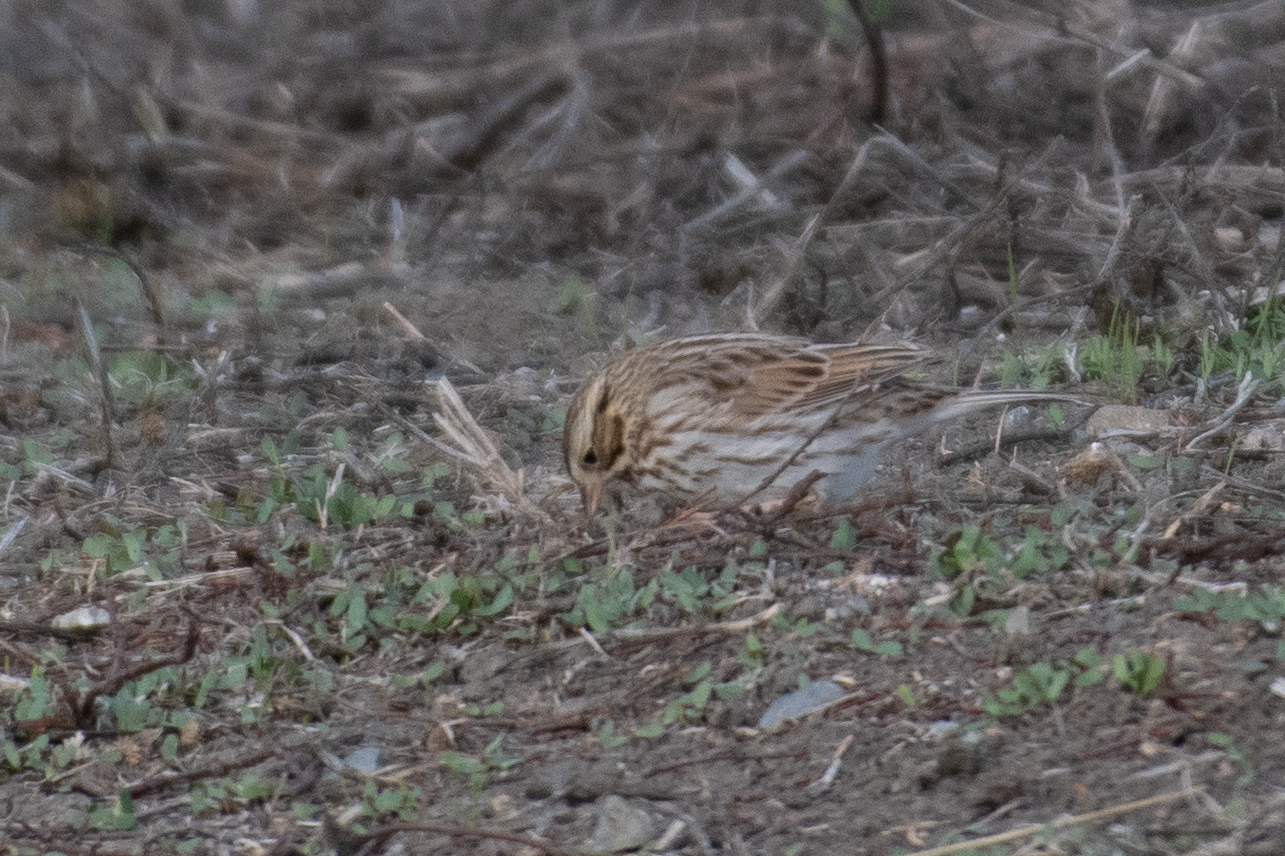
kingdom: Animalia
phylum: Chordata
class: Aves
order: Passeriformes
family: Passerellidae
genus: Passerculus
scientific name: Passerculus sandwichensis
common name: Savannah sparrow
